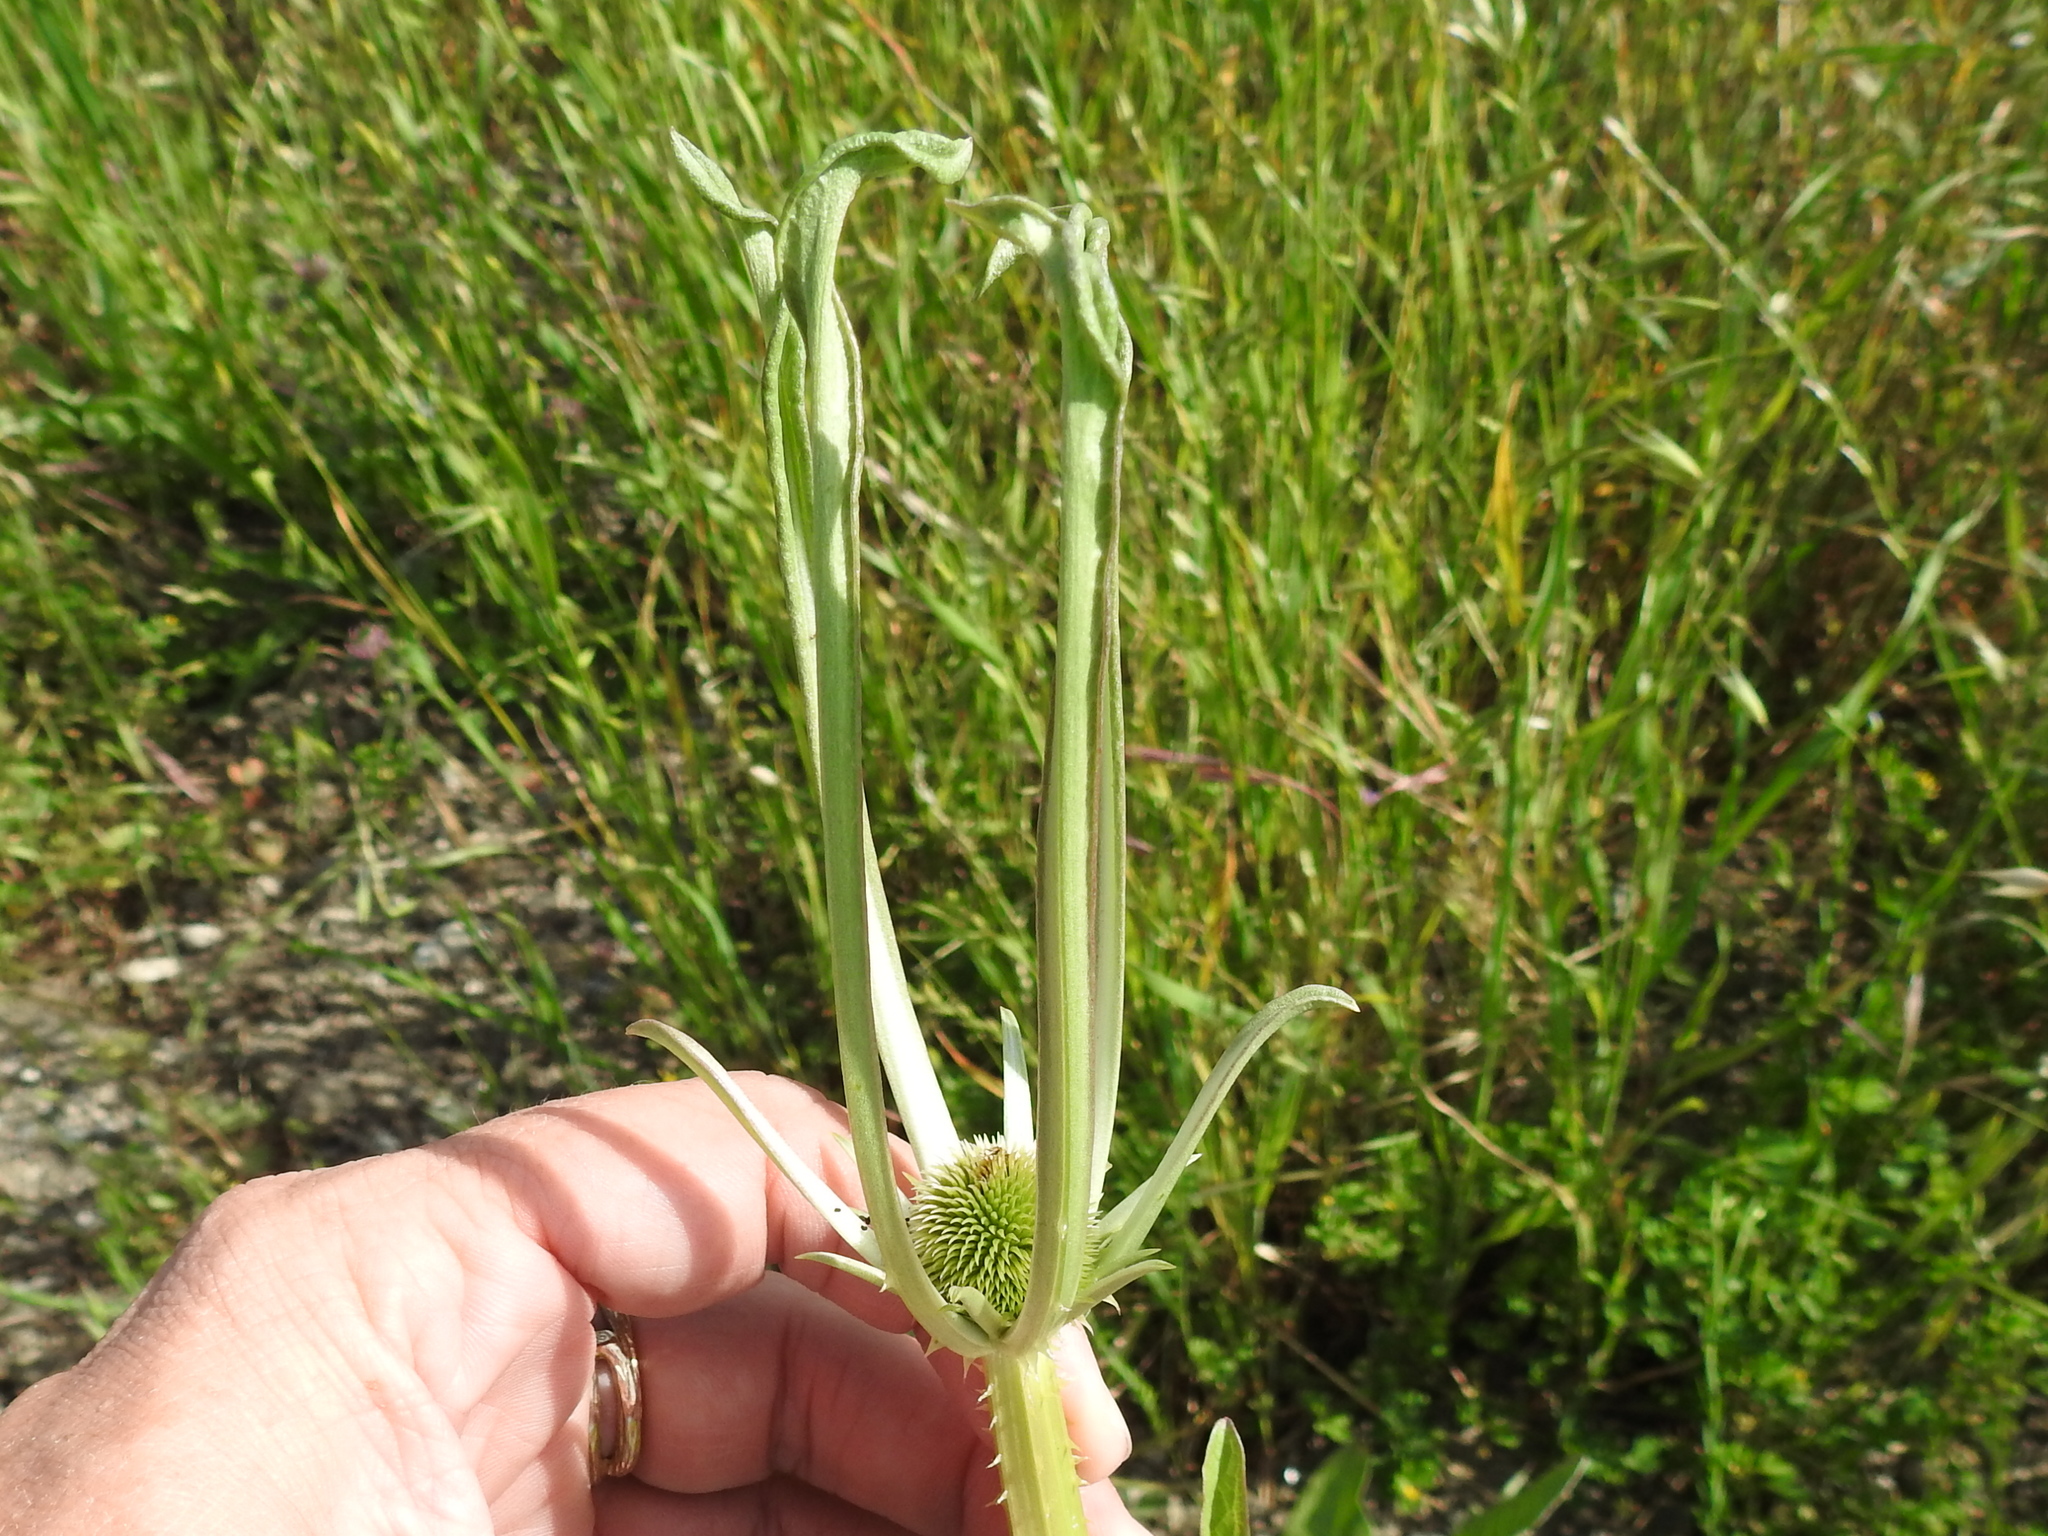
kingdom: Plantae
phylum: Tracheophyta
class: Magnoliopsida
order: Dipsacales
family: Caprifoliaceae
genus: Dipsacus
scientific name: Dipsacus sativus
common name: Fuller's teasel
